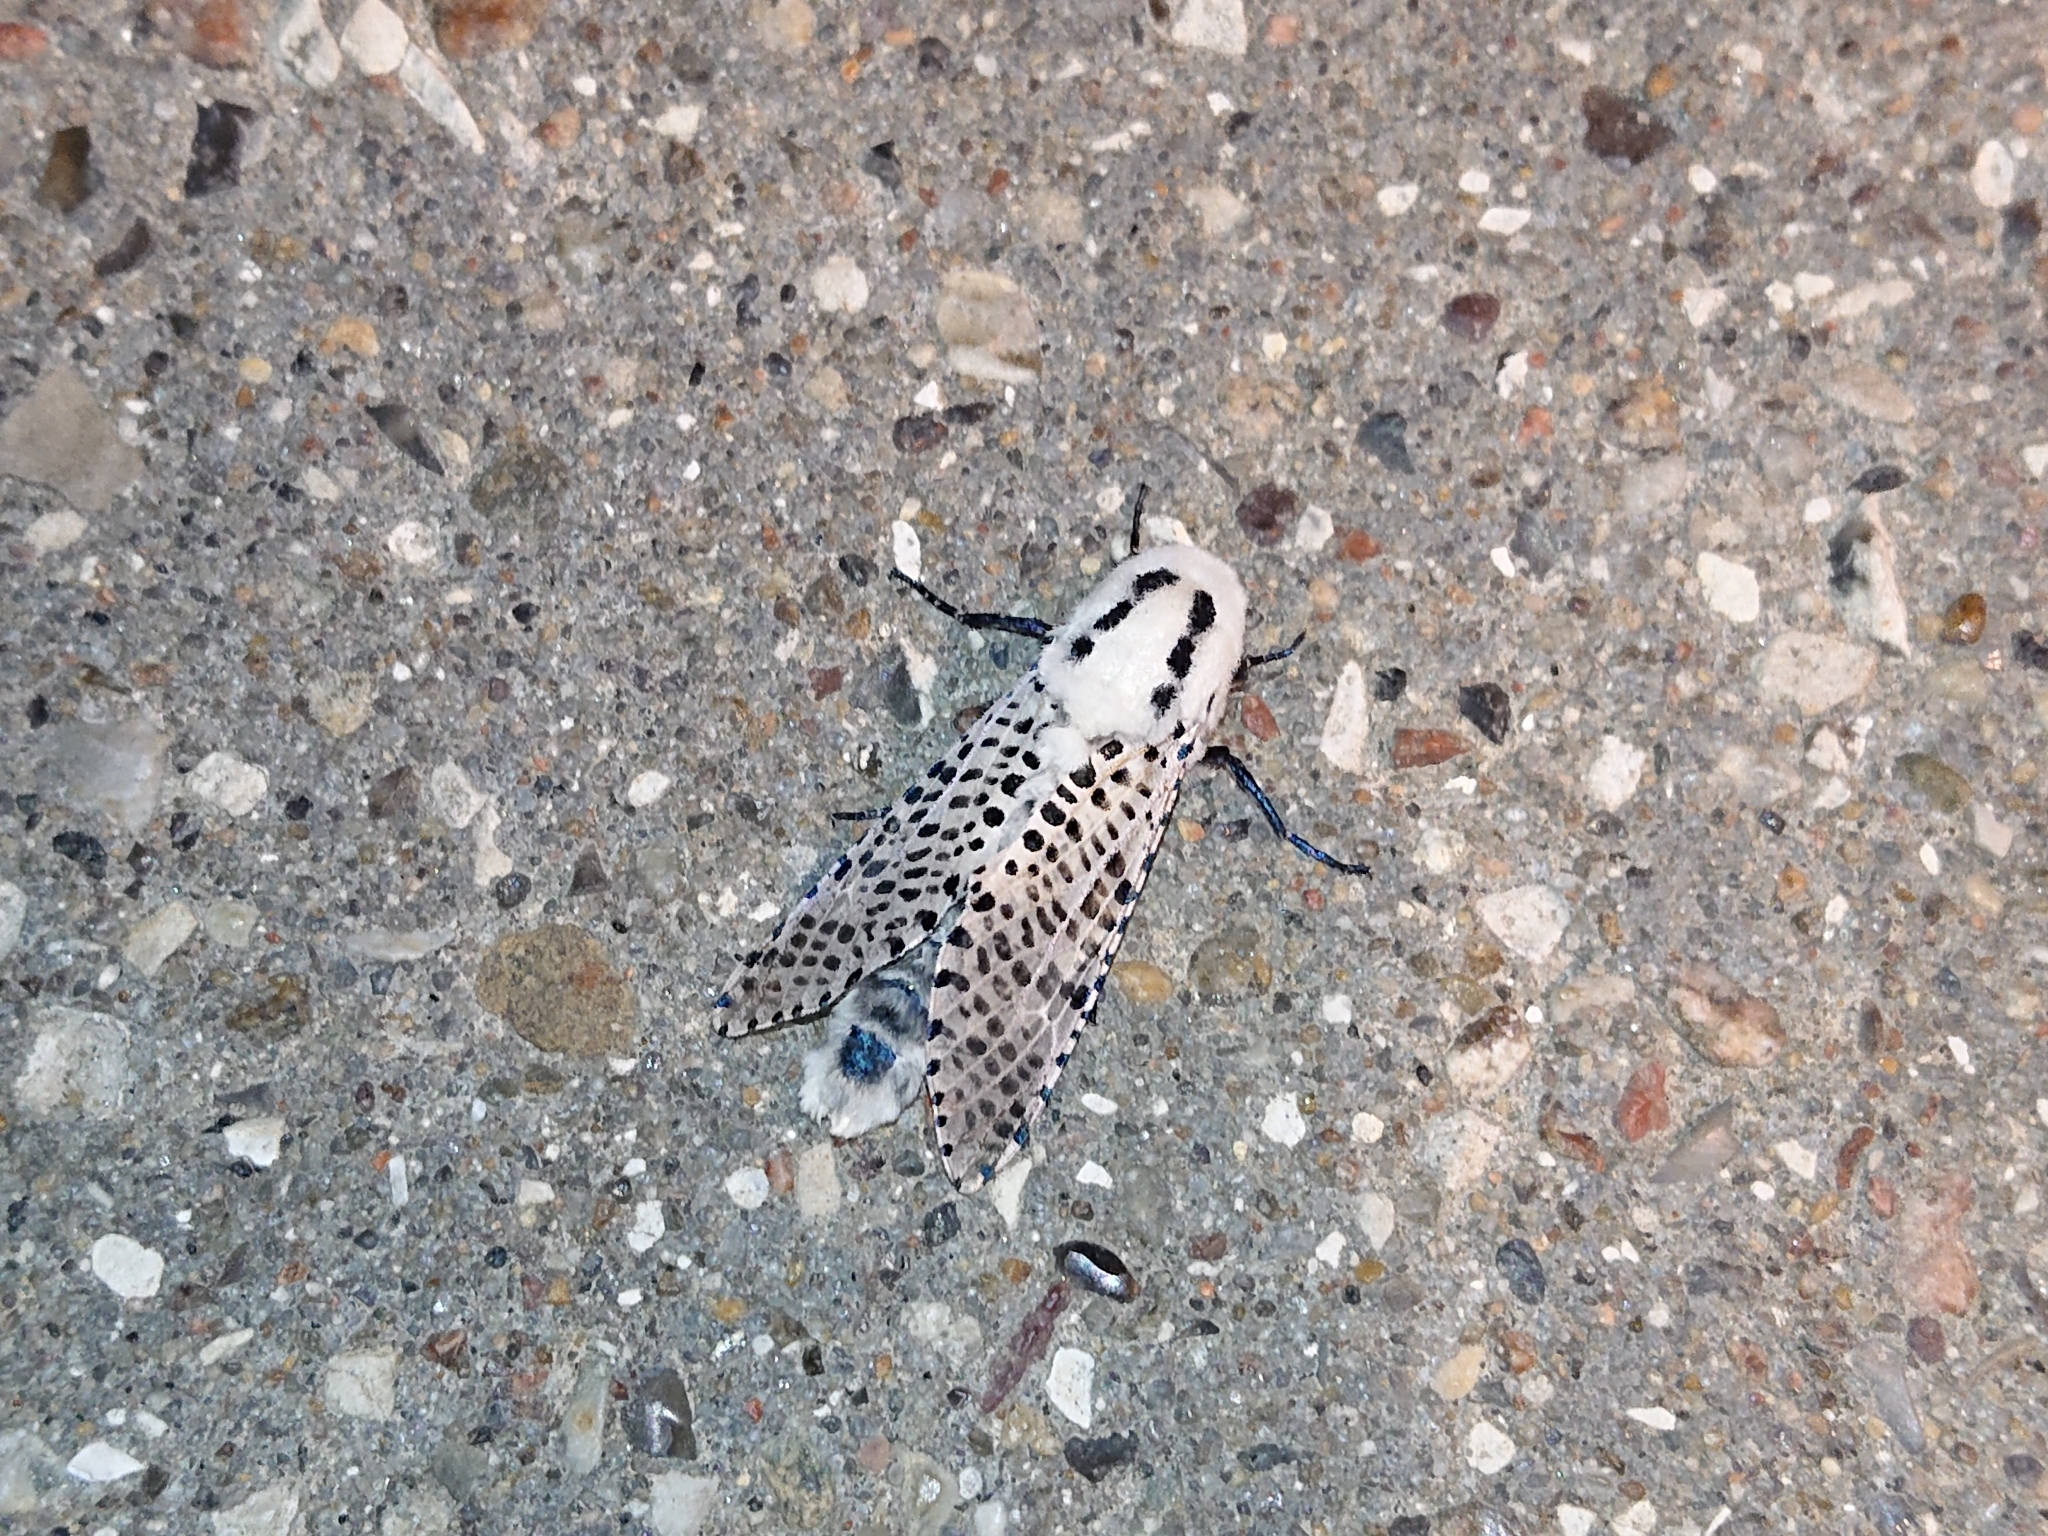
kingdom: Animalia
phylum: Arthropoda
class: Insecta
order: Lepidoptera
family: Cossidae
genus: Zeuzera
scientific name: Zeuzera pyrina
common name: Leopard moth
